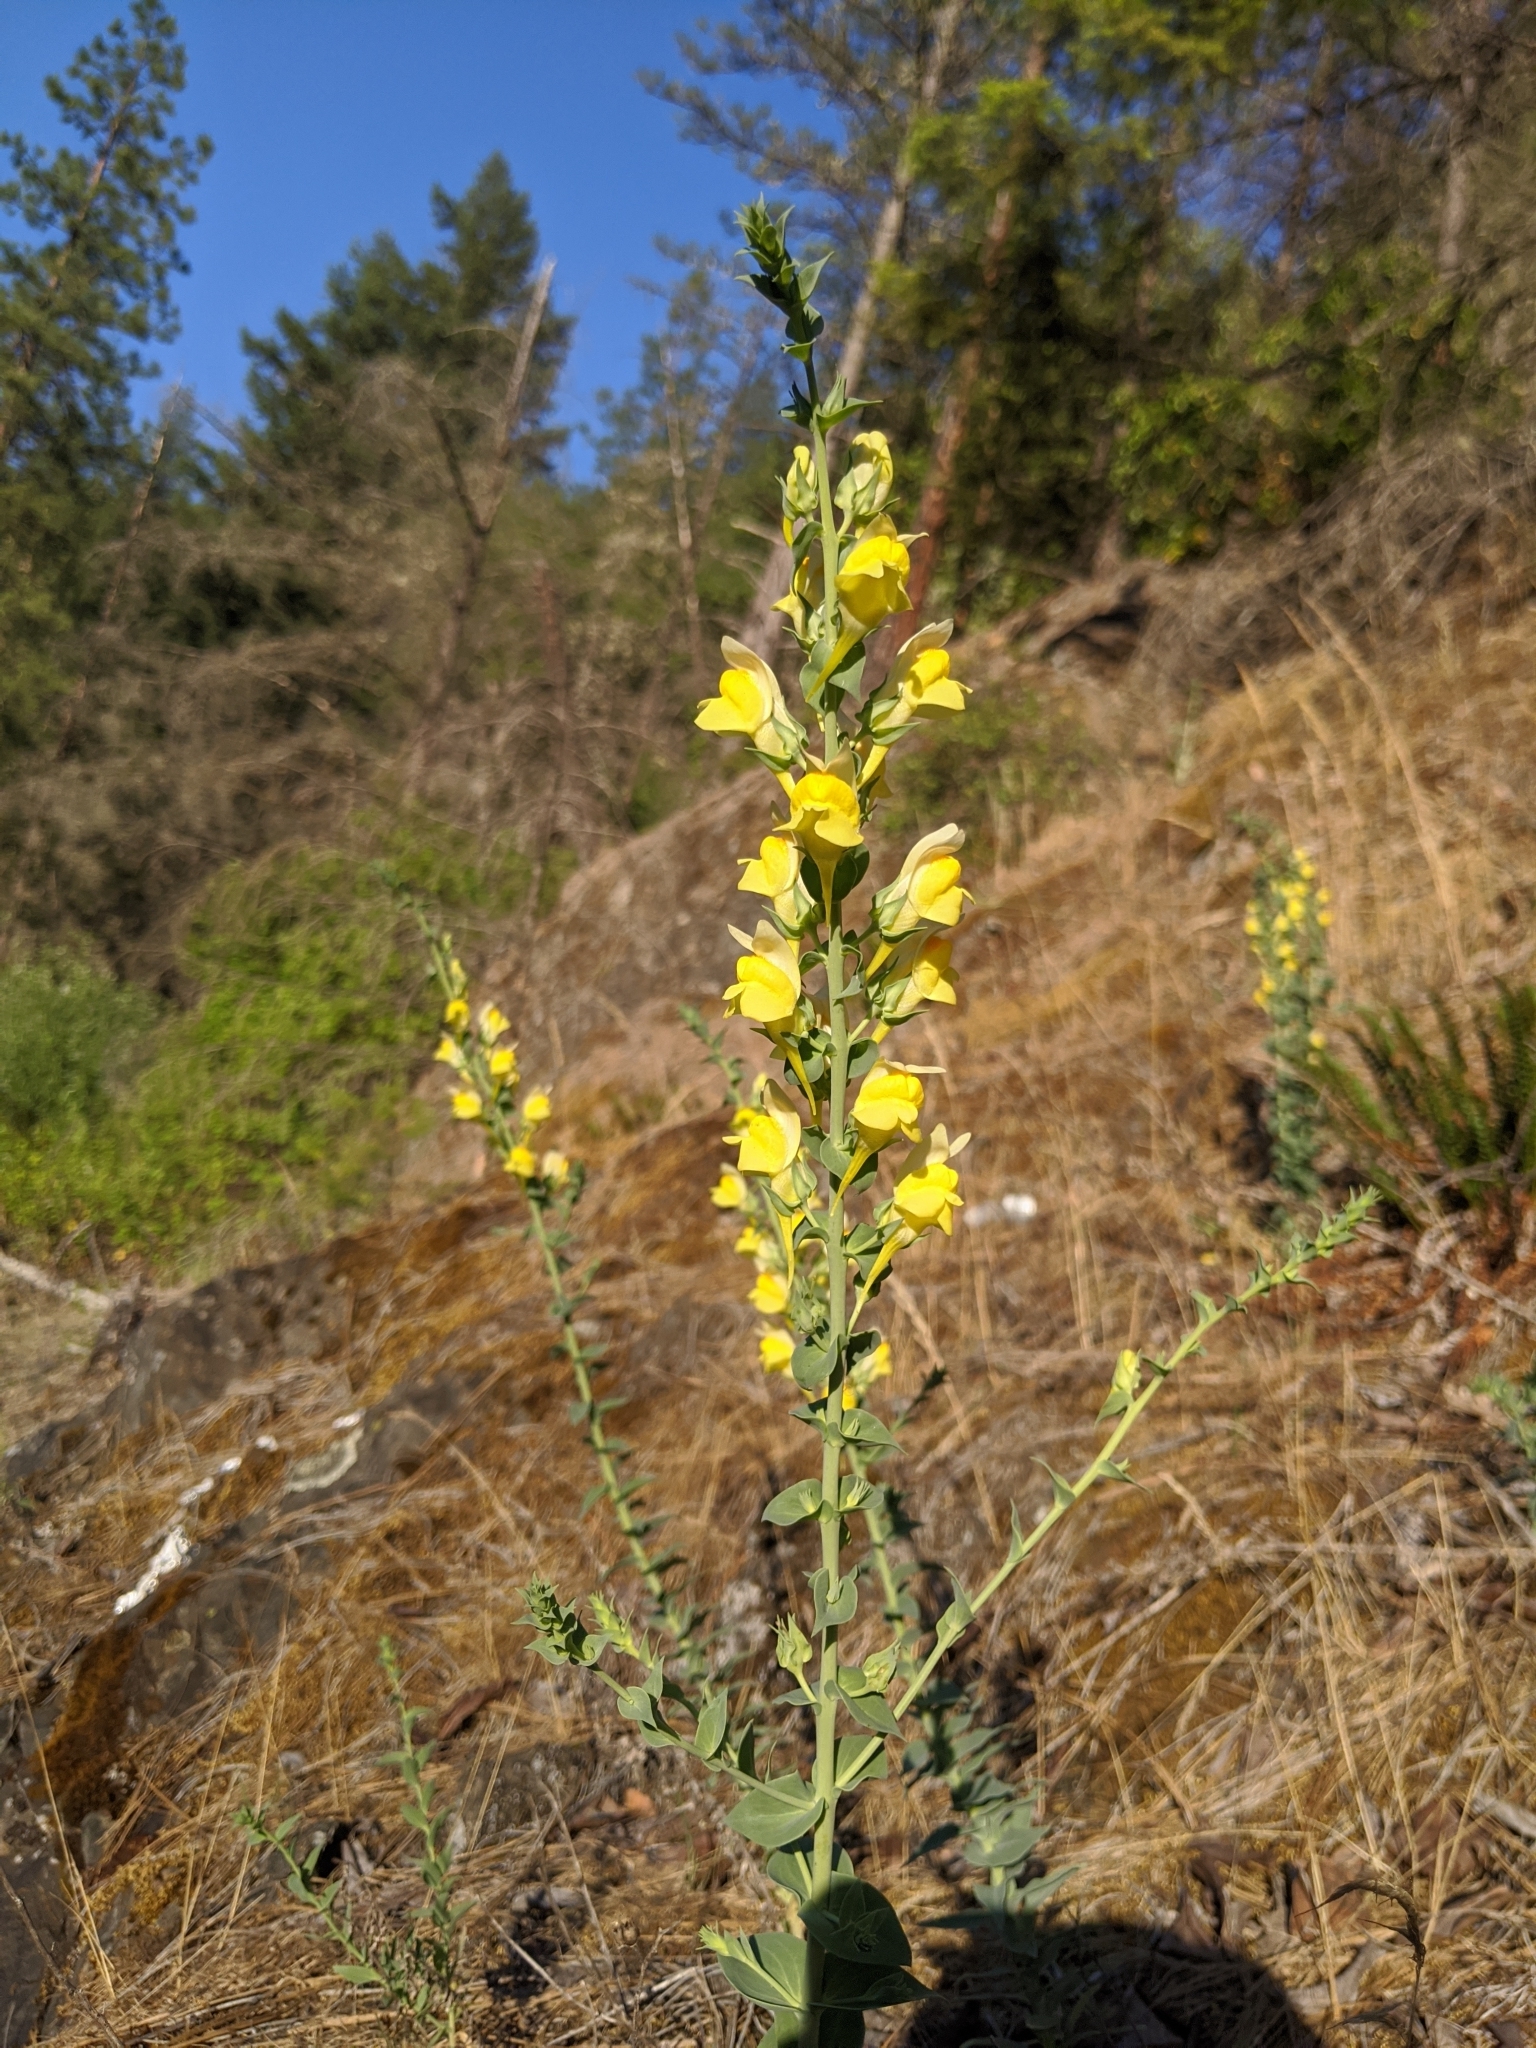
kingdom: Plantae
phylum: Tracheophyta
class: Magnoliopsida
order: Lamiales
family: Plantaginaceae
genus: Linaria
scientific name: Linaria dalmatica
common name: Dalmatian toadflax
